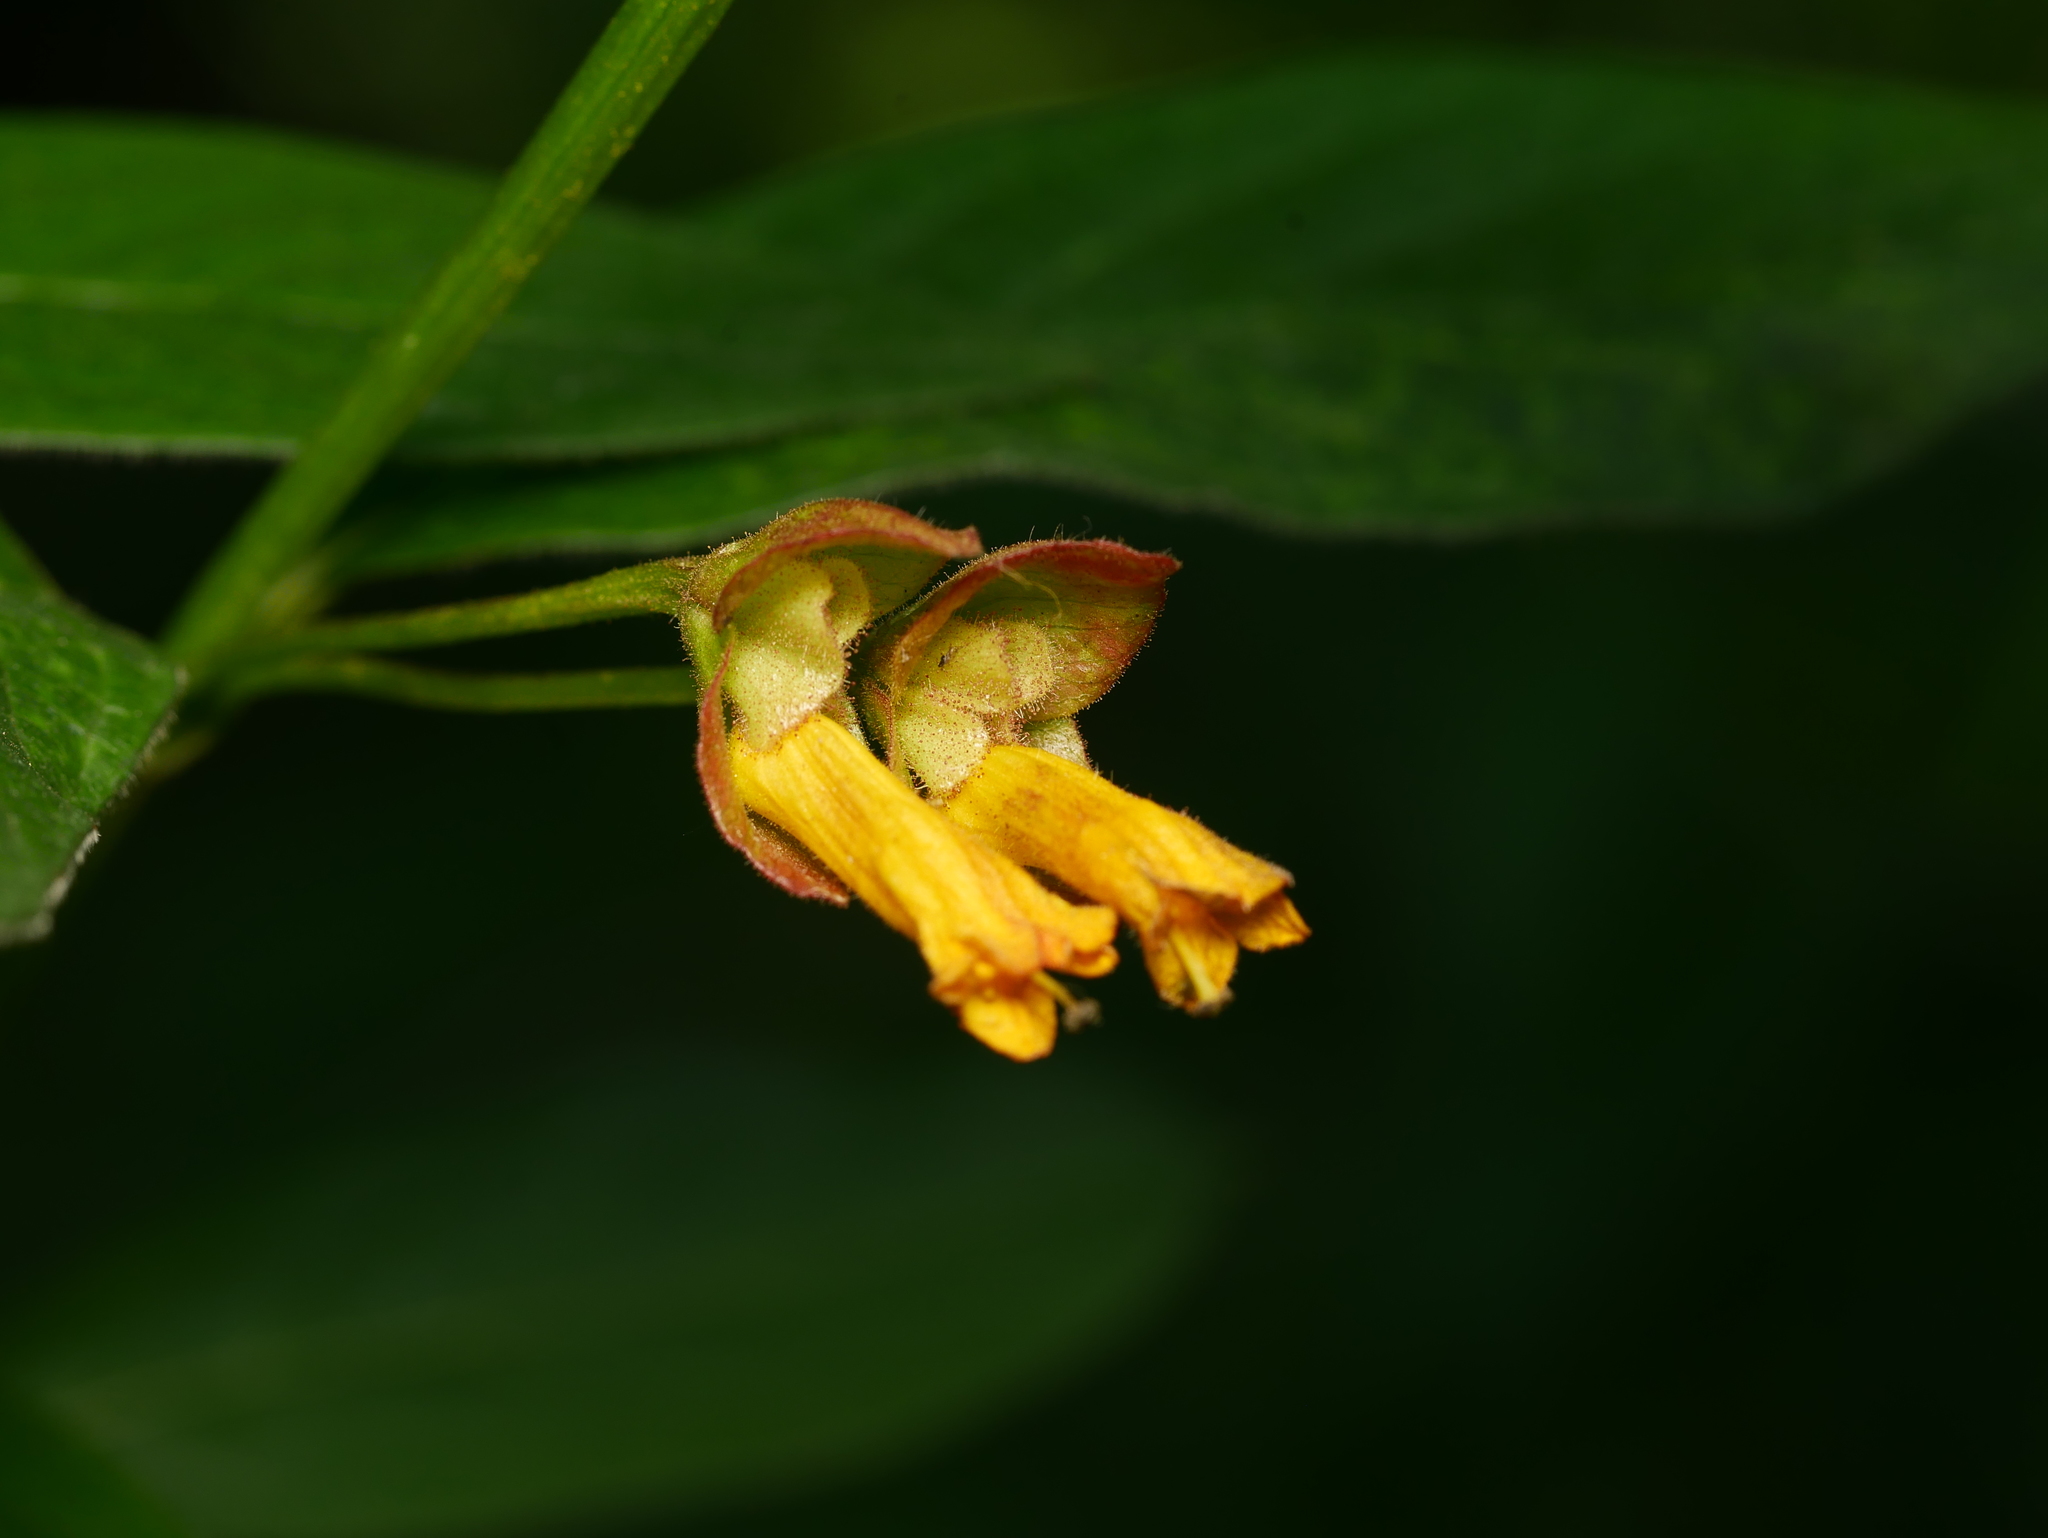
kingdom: Plantae
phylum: Tracheophyta
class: Magnoliopsida
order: Dipsacales
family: Caprifoliaceae
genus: Lonicera
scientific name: Lonicera involucrata
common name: Californian honeysuckle
